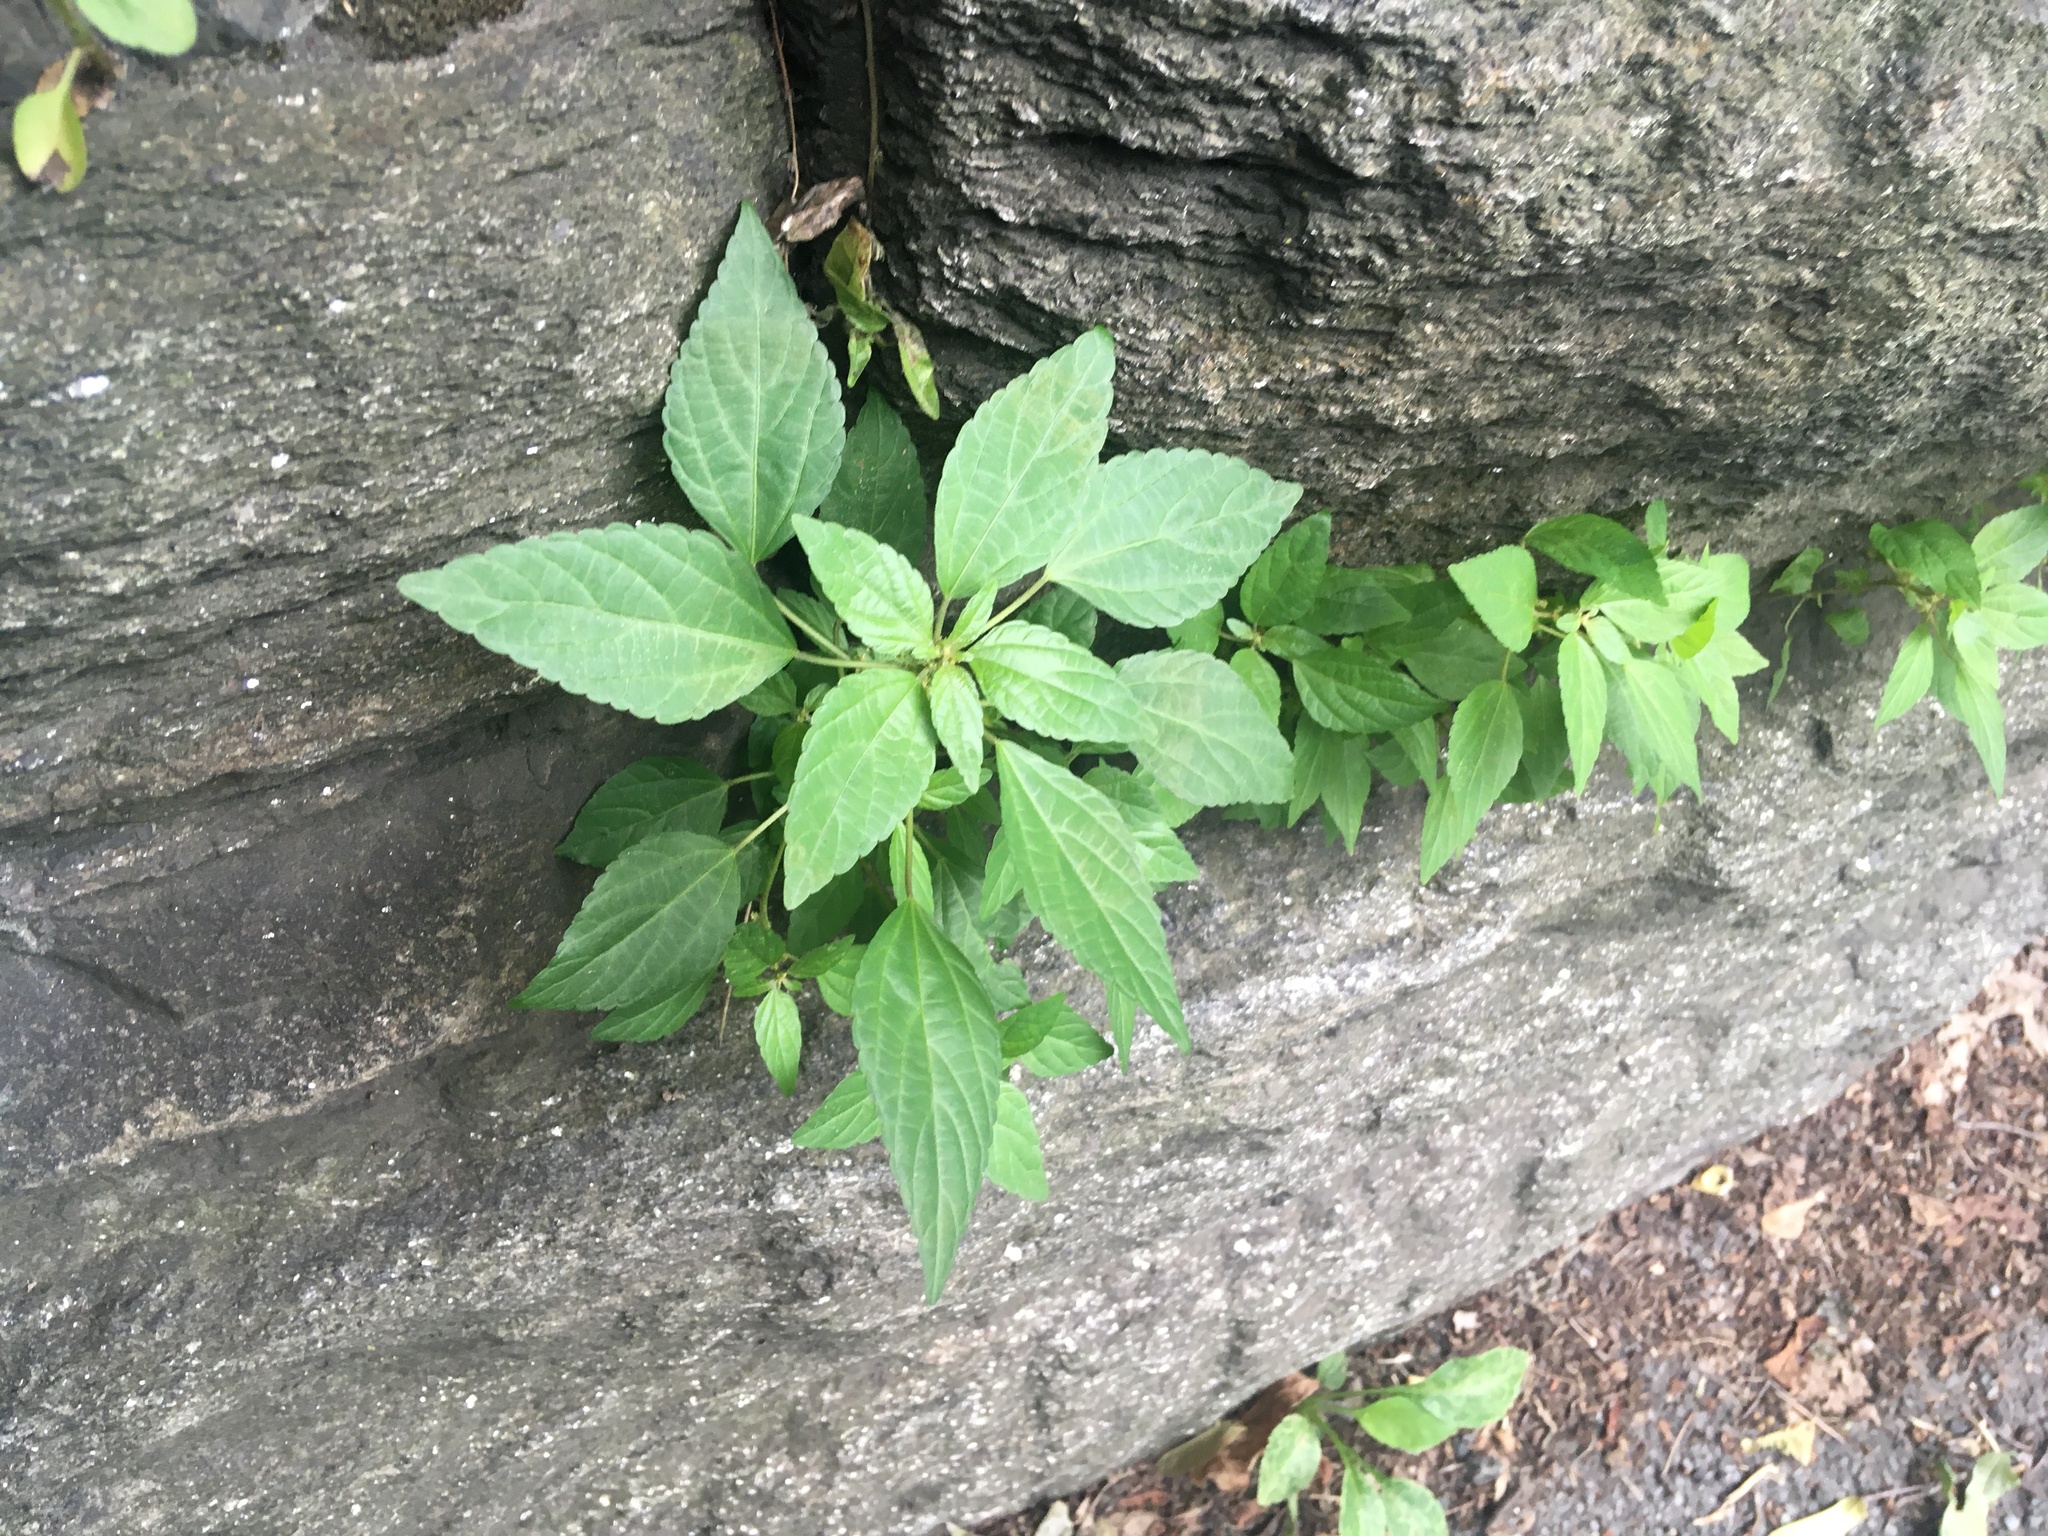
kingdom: Plantae
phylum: Tracheophyta
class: Magnoliopsida
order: Malpighiales
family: Euphorbiaceae
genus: Acalypha
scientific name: Acalypha rhomboidea
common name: Rhombic copperleaf
